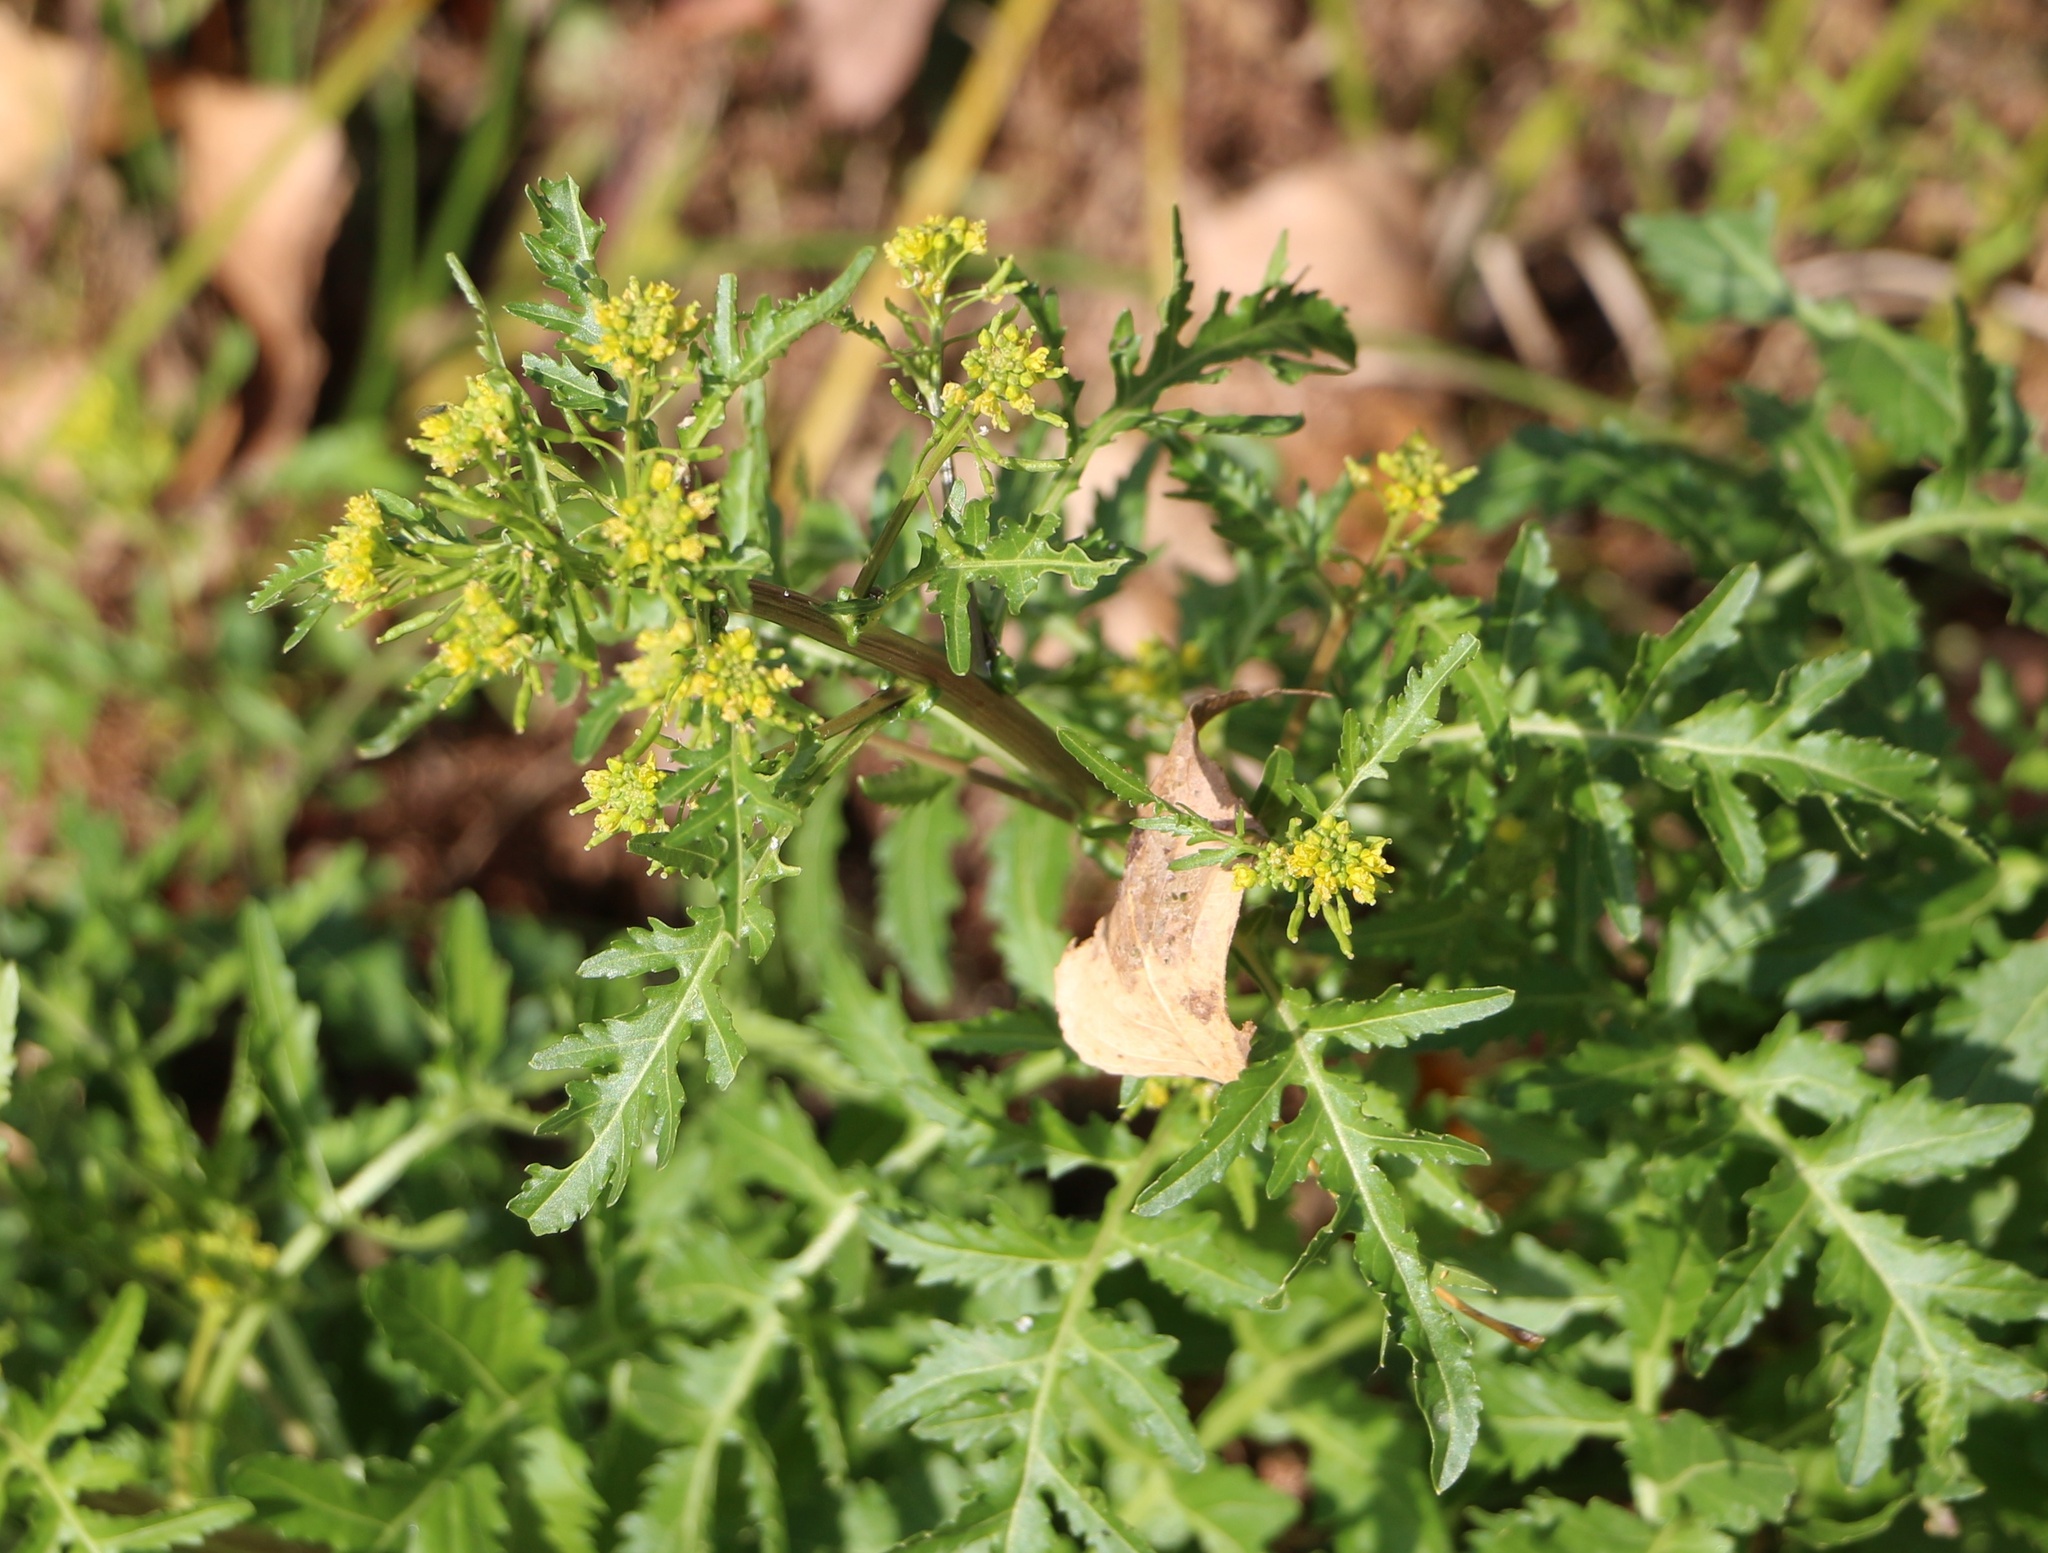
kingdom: Plantae
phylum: Tracheophyta
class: Magnoliopsida
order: Brassicales
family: Brassicaceae
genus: Rorippa
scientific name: Rorippa palustris
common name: Marsh yellow-cress
